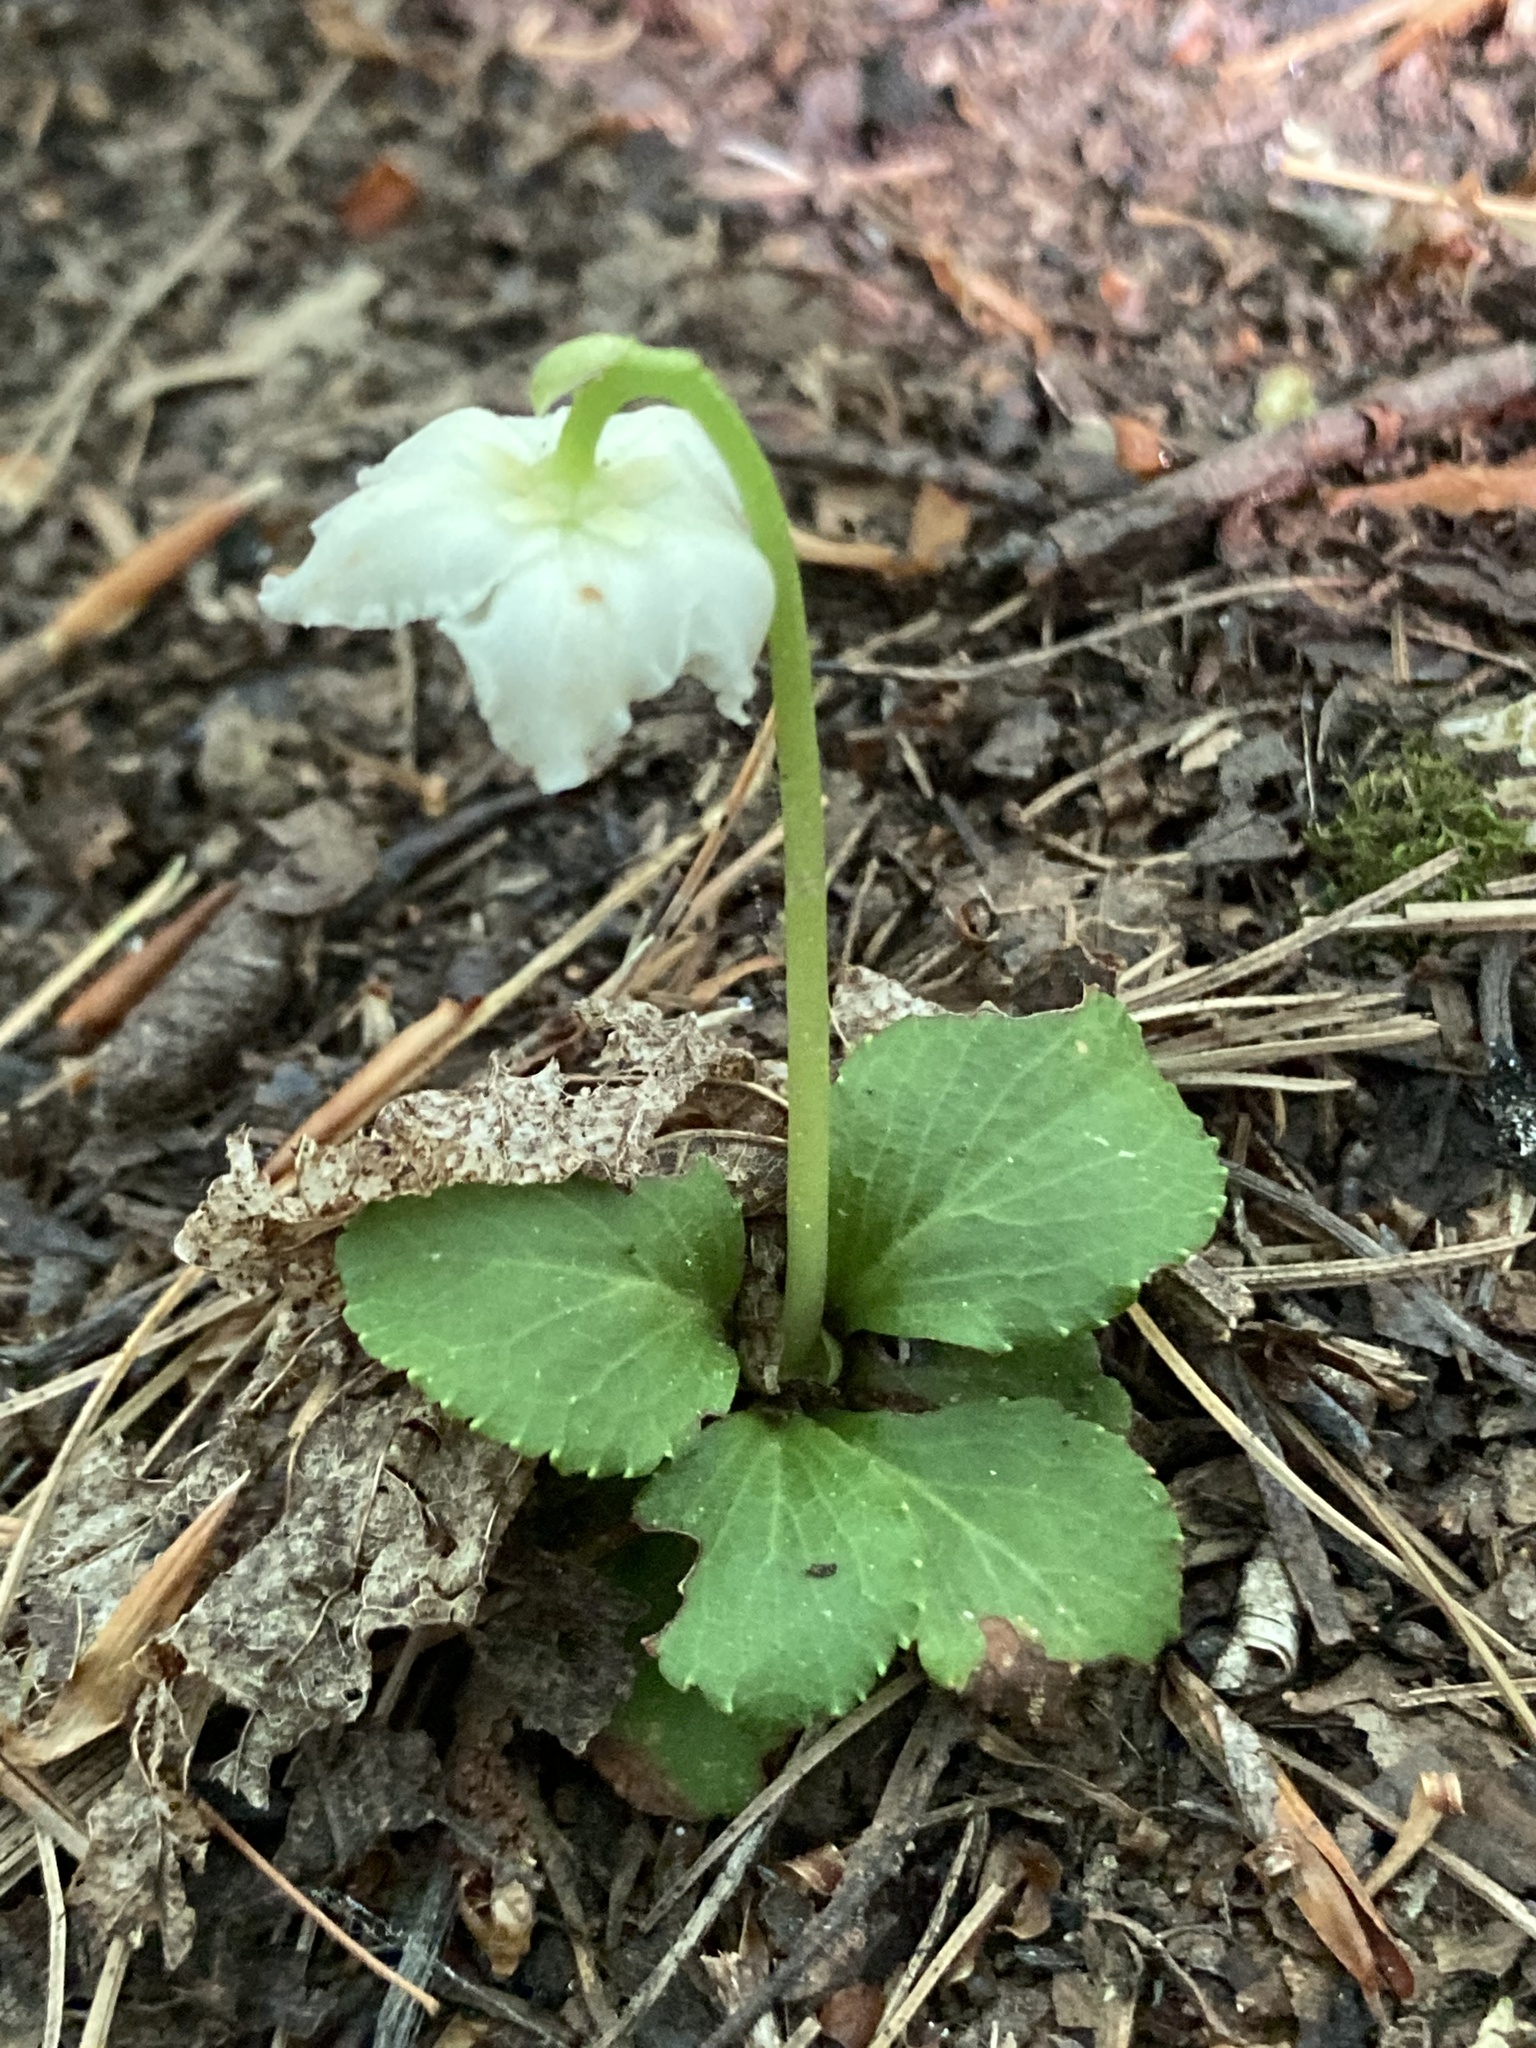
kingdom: Plantae
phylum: Tracheophyta
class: Magnoliopsida
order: Ericales
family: Ericaceae
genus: Moneses
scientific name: Moneses uniflora
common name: One-flowered wintergreen
